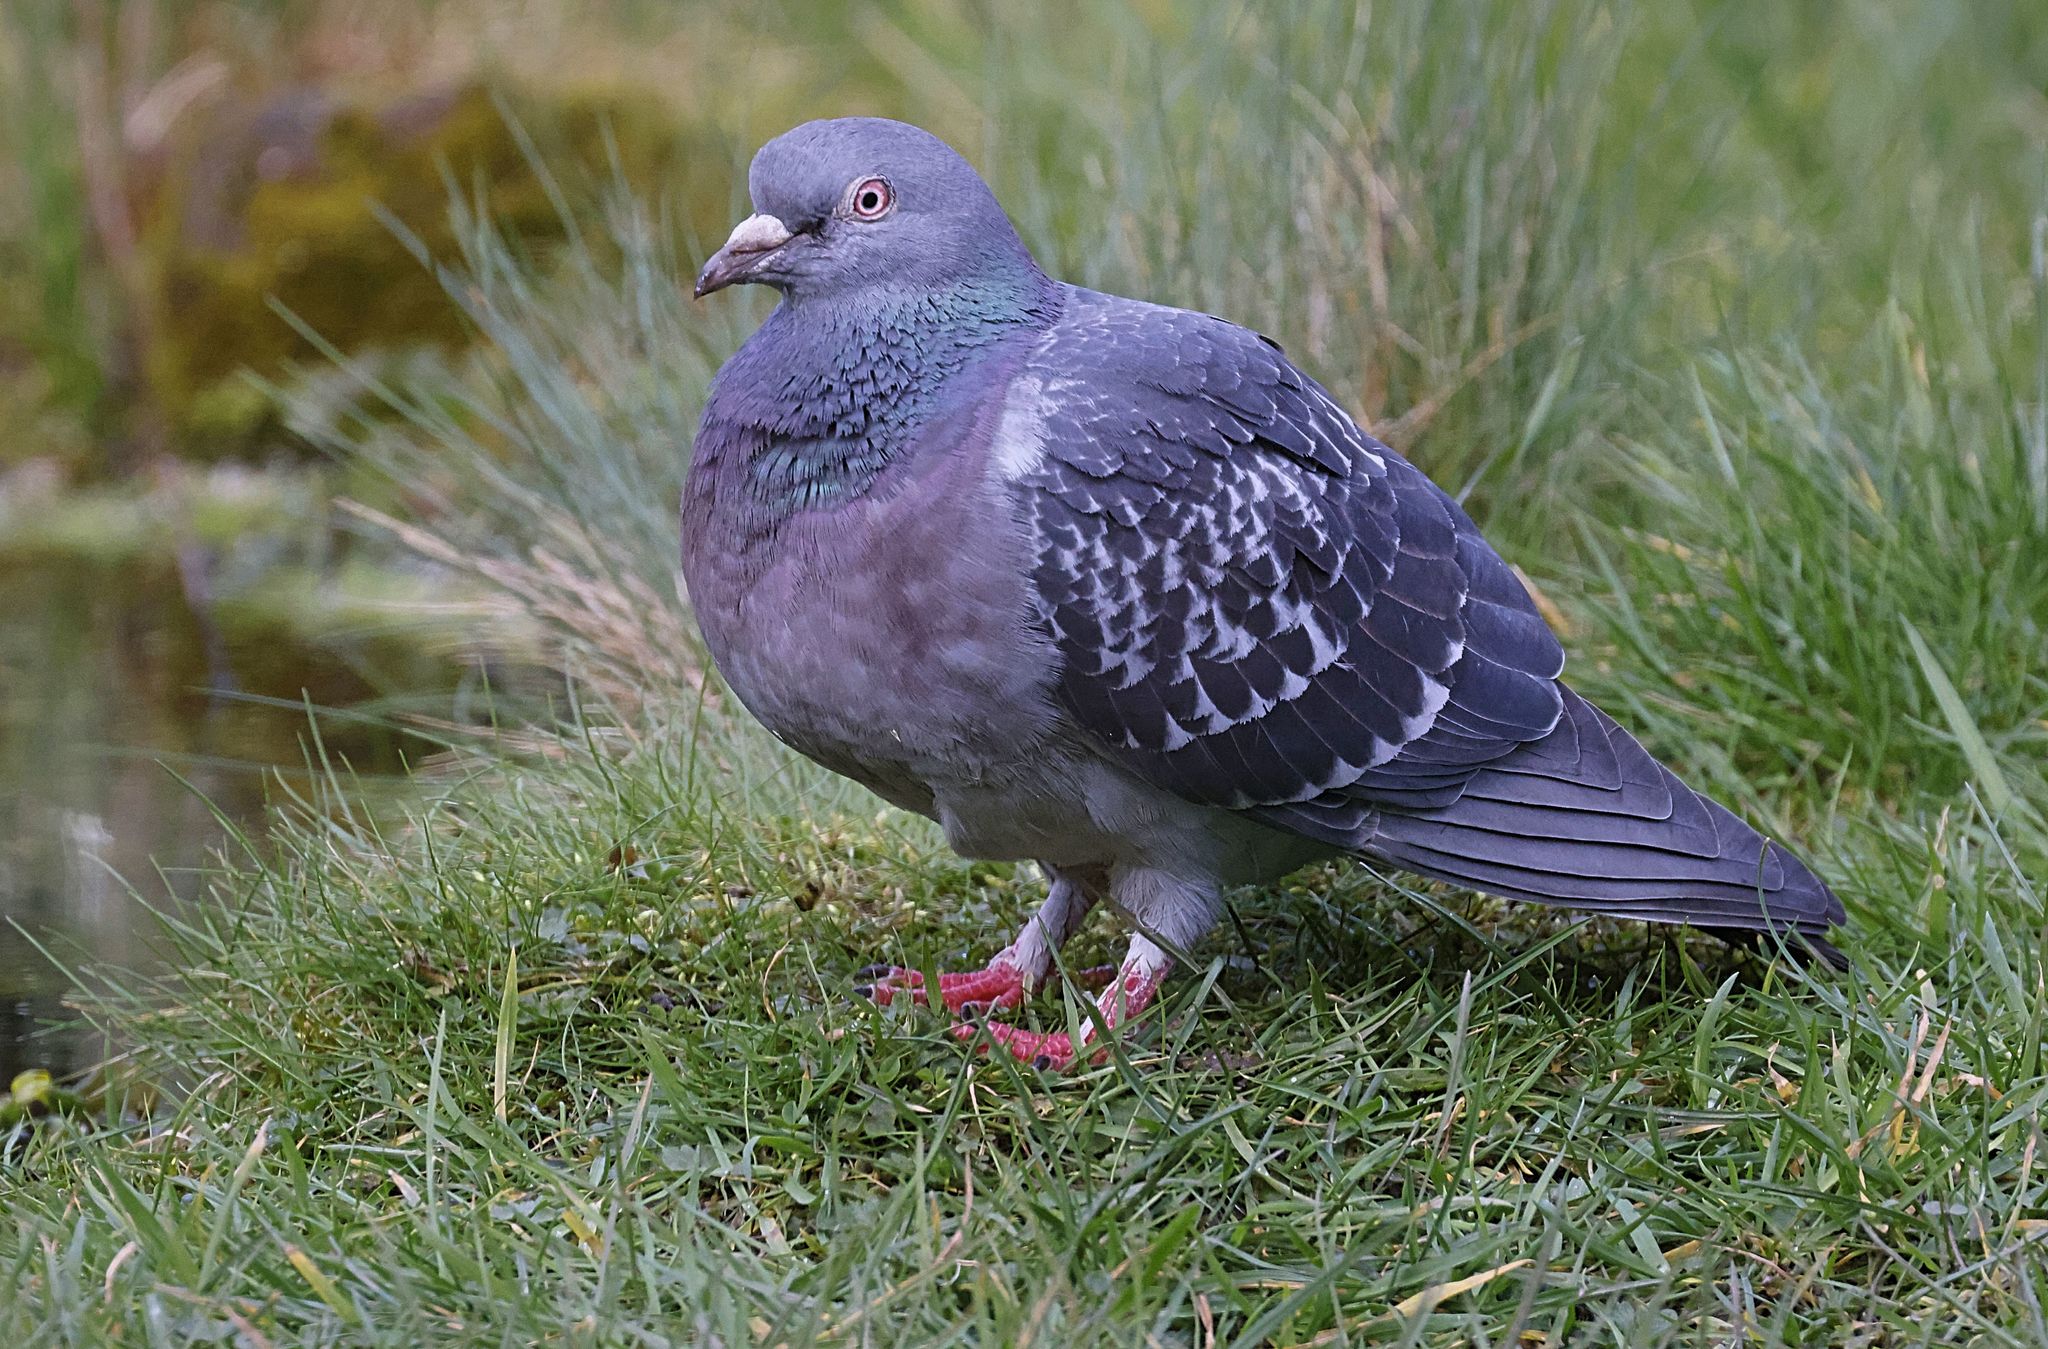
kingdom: Animalia
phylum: Chordata
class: Aves
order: Columbiformes
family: Columbidae
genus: Columba
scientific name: Columba livia
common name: Rock pigeon
